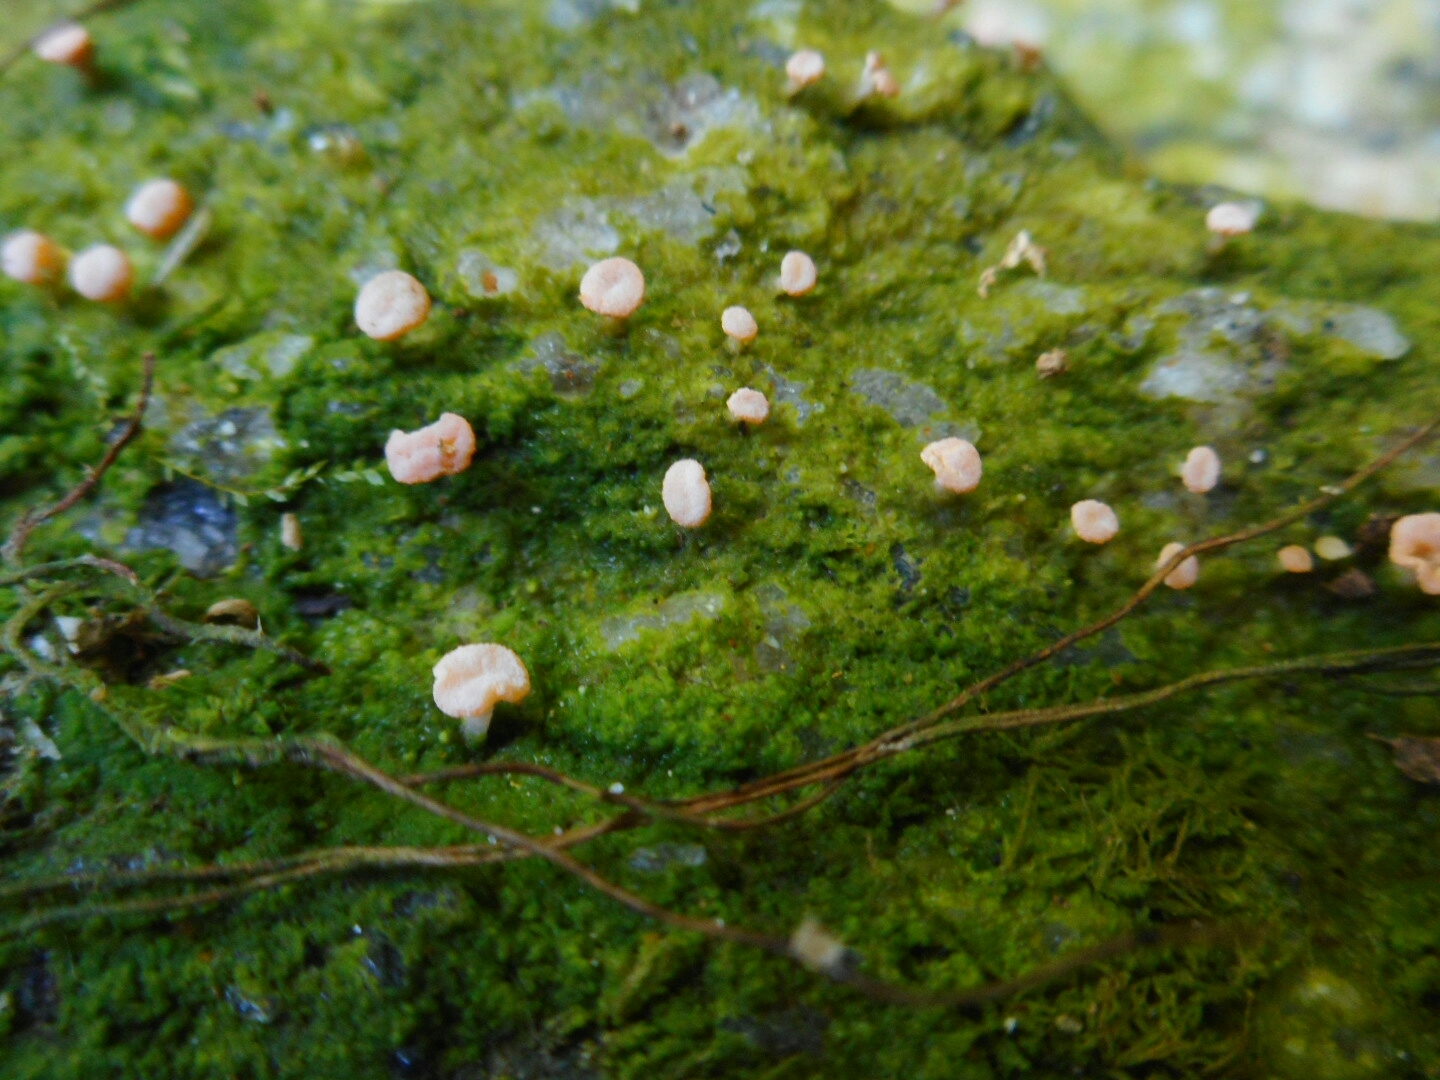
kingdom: Fungi
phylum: Ascomycota
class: Lecanoromycetes
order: Pertusariales
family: Icmadophilaceae
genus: Dibaeis
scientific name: Dibaeis stipitata
